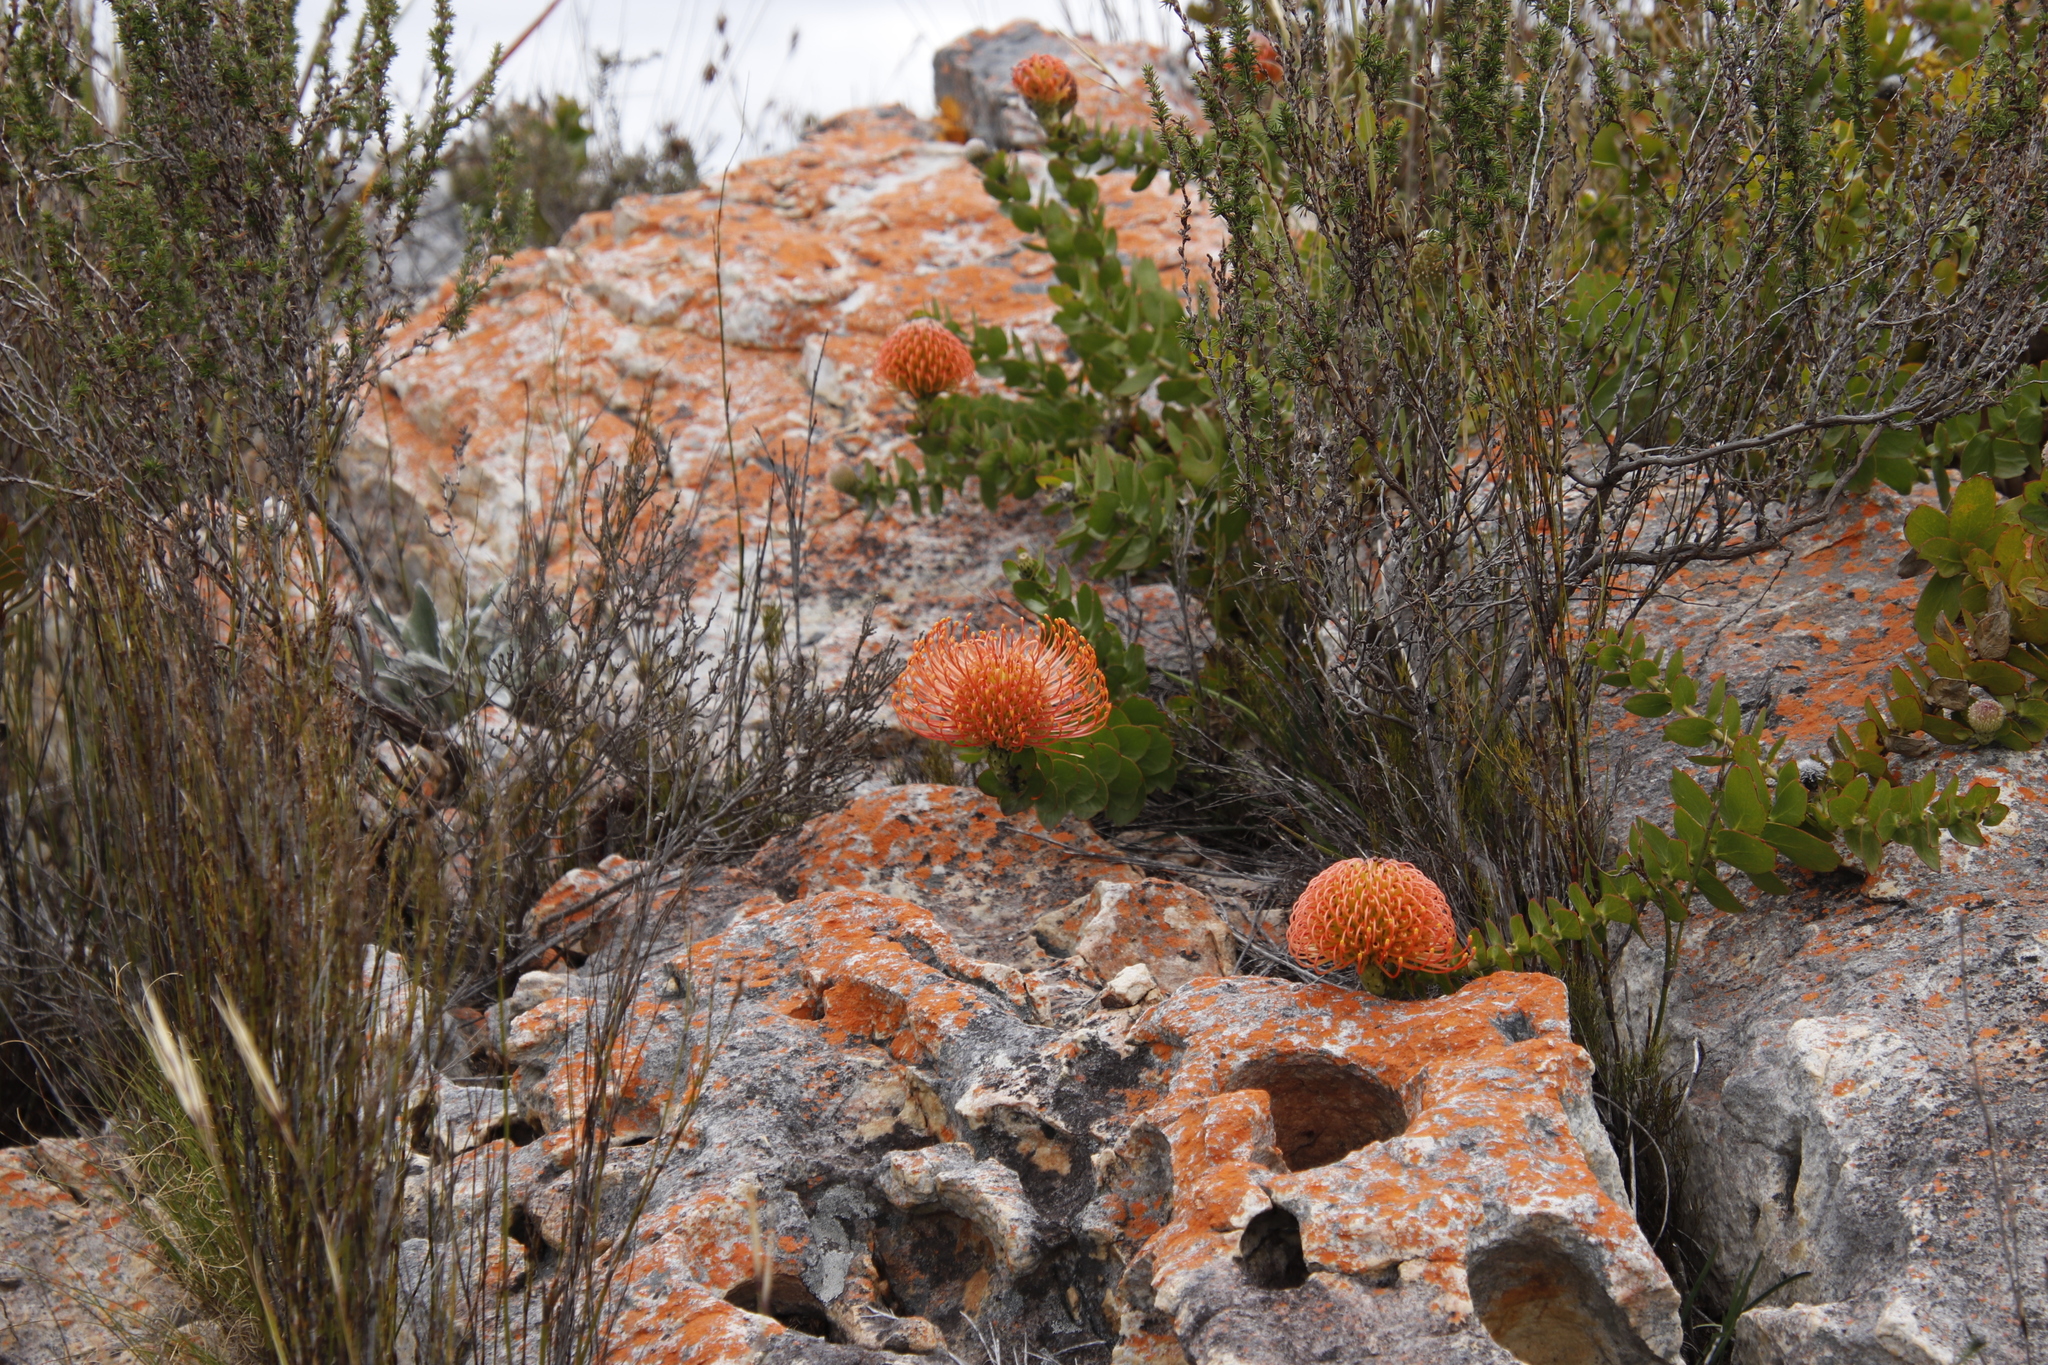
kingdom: Plantae
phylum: Tracheophyta
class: Magnoliopsida
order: Proteales
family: Proteaceae
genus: Leucospermum
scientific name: Leucospermum cordifolium
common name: Red pincushion-protea
